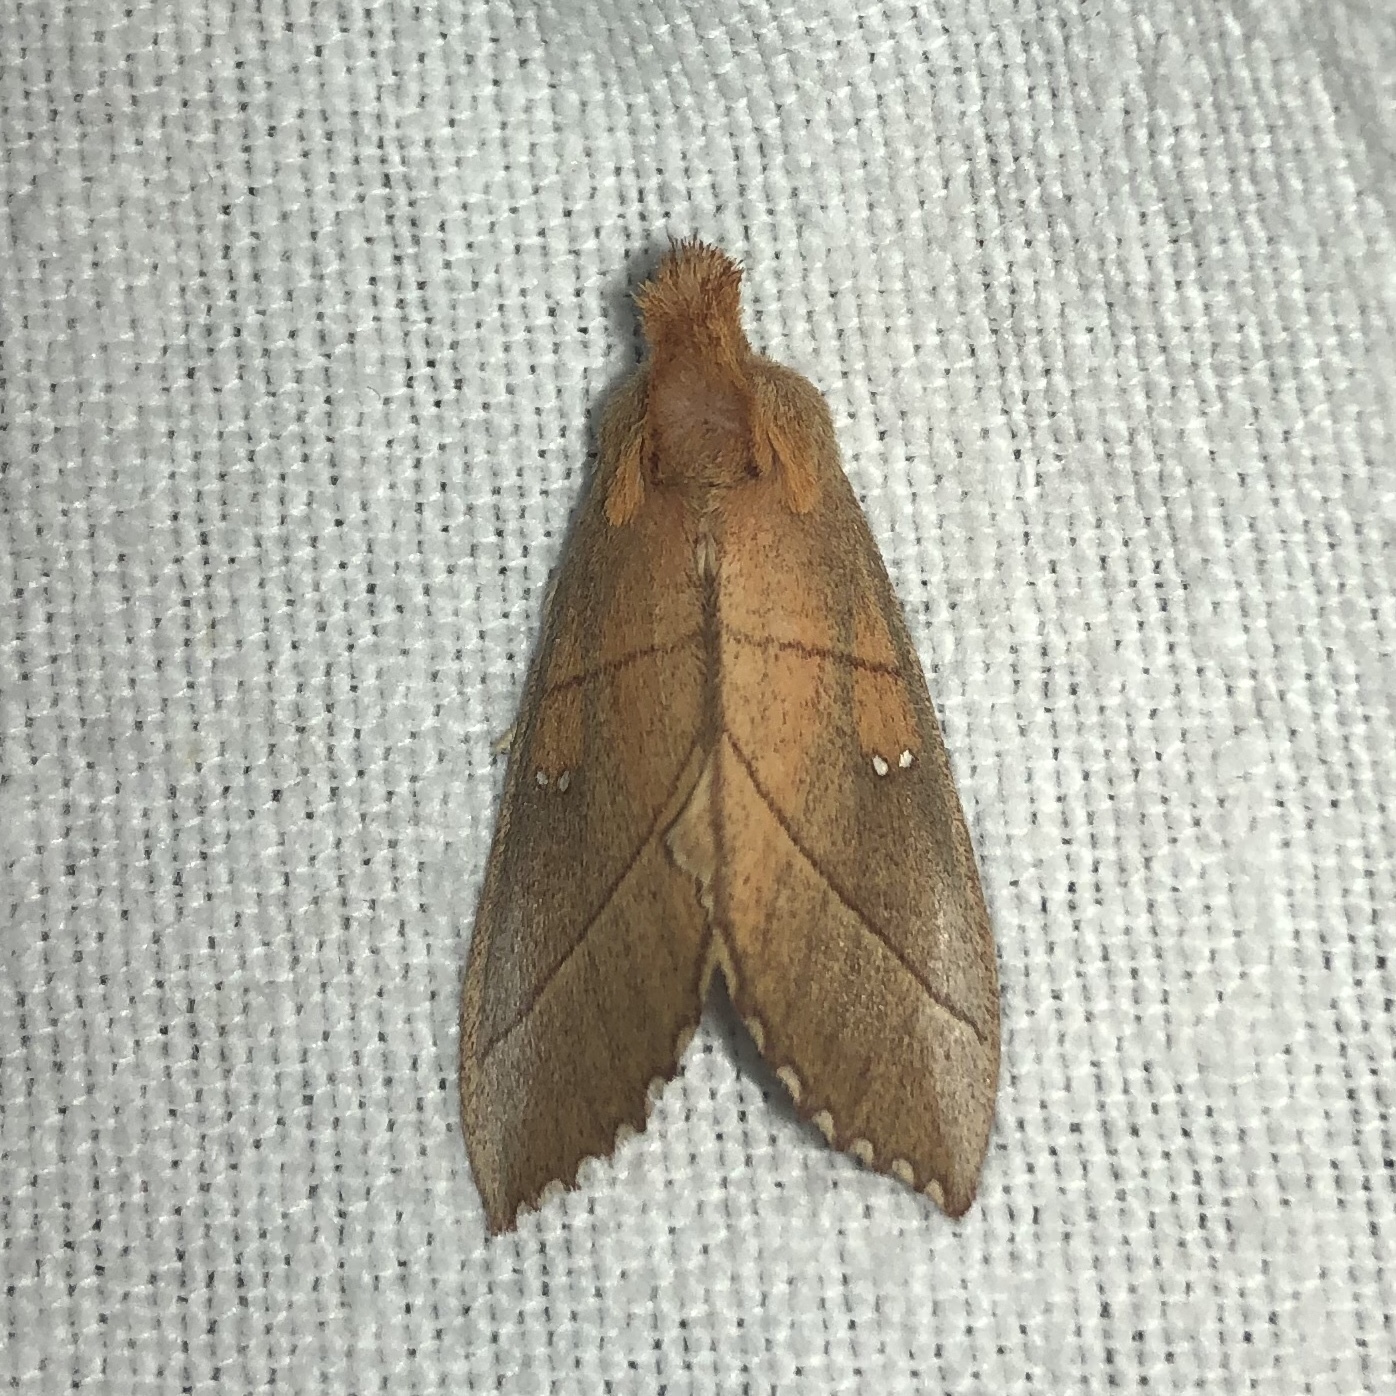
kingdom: Animalia
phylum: Arthropoda
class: Insecta
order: Lepidoptera
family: Notodontidae
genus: Nadata
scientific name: Nadata gibbosa
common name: White-dotted prominent
